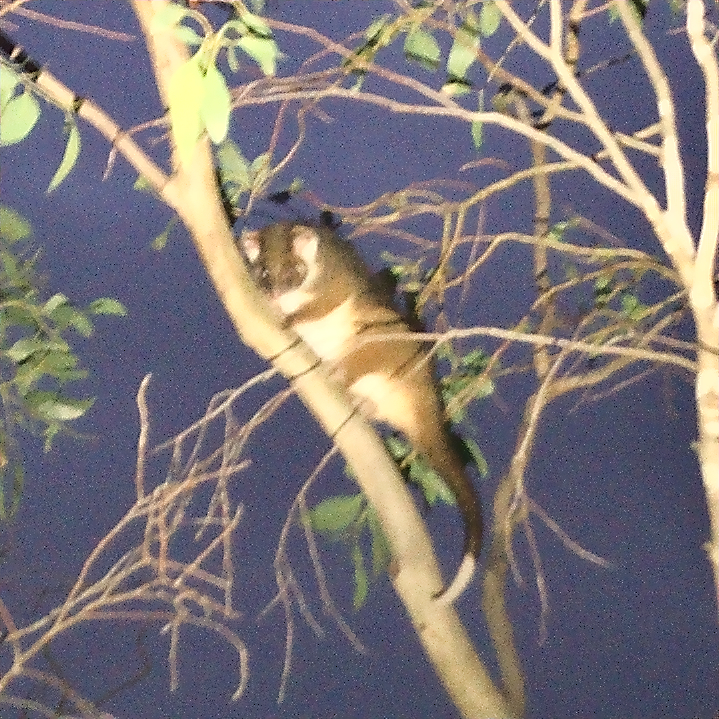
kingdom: Animalia
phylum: Chordata
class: Mammalia
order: Diprotodontia
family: Pseudocheiridae
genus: Pseudocheirus
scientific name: Pseudocheirus peregrinus
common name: Common ringtail possum
